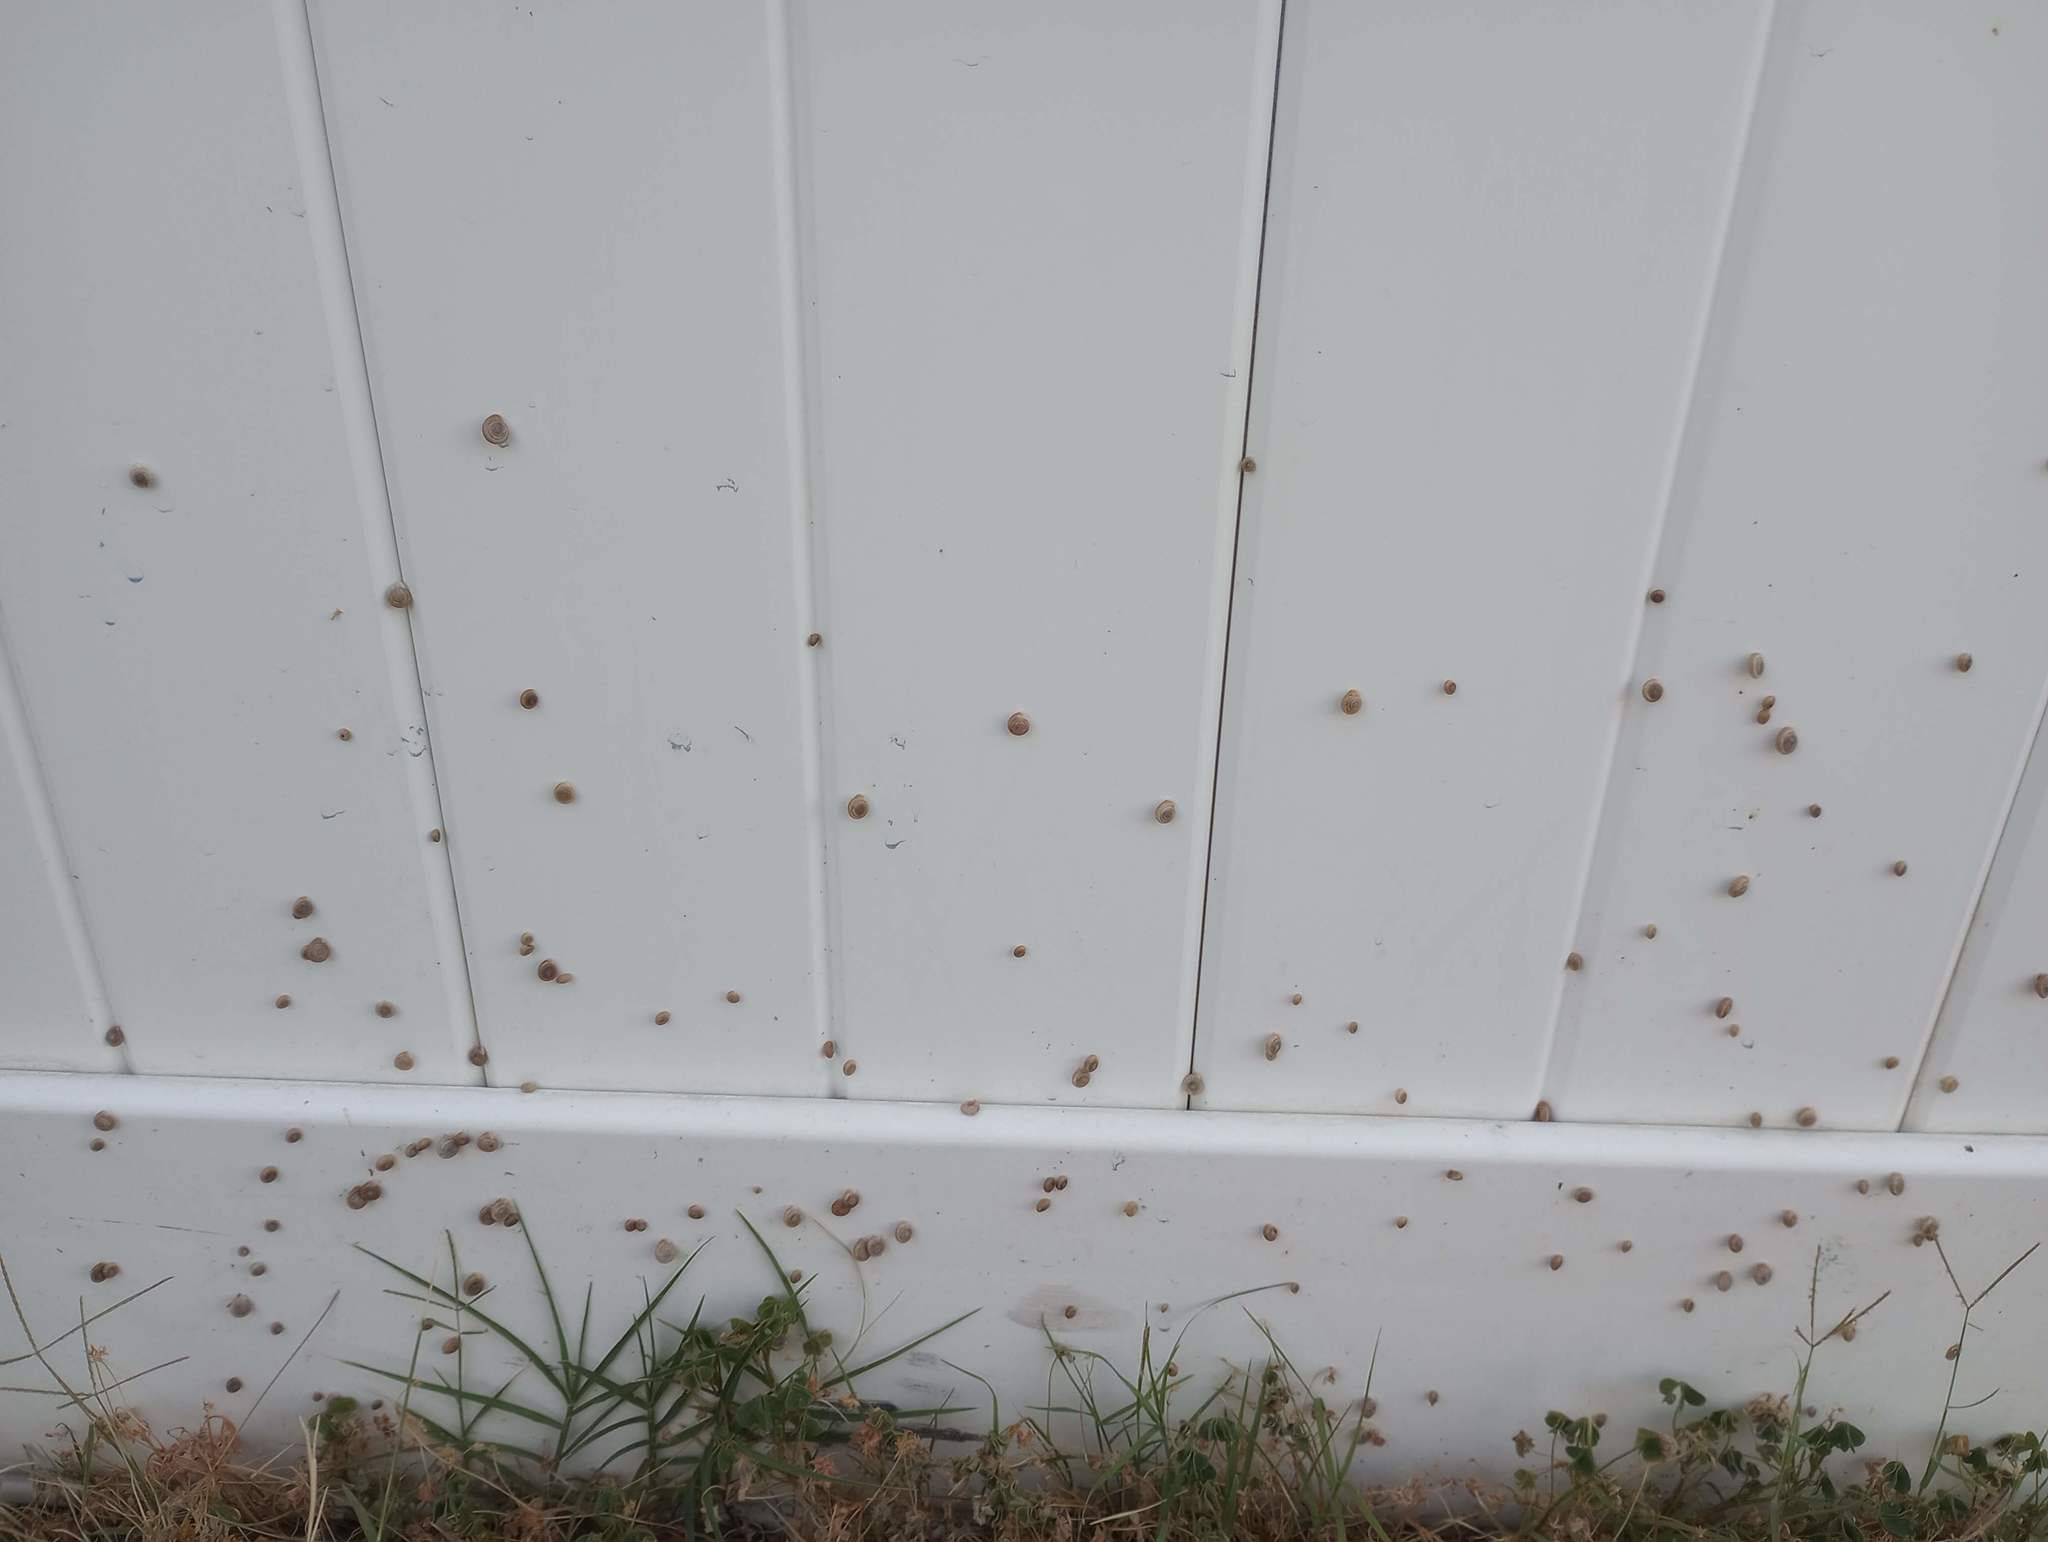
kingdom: Animalia
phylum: Mollusca
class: Gastropoda
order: Stylommatophora
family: Polygyridae
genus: Polygyra
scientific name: Polygyra cereolus
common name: Southern flatcone snail
